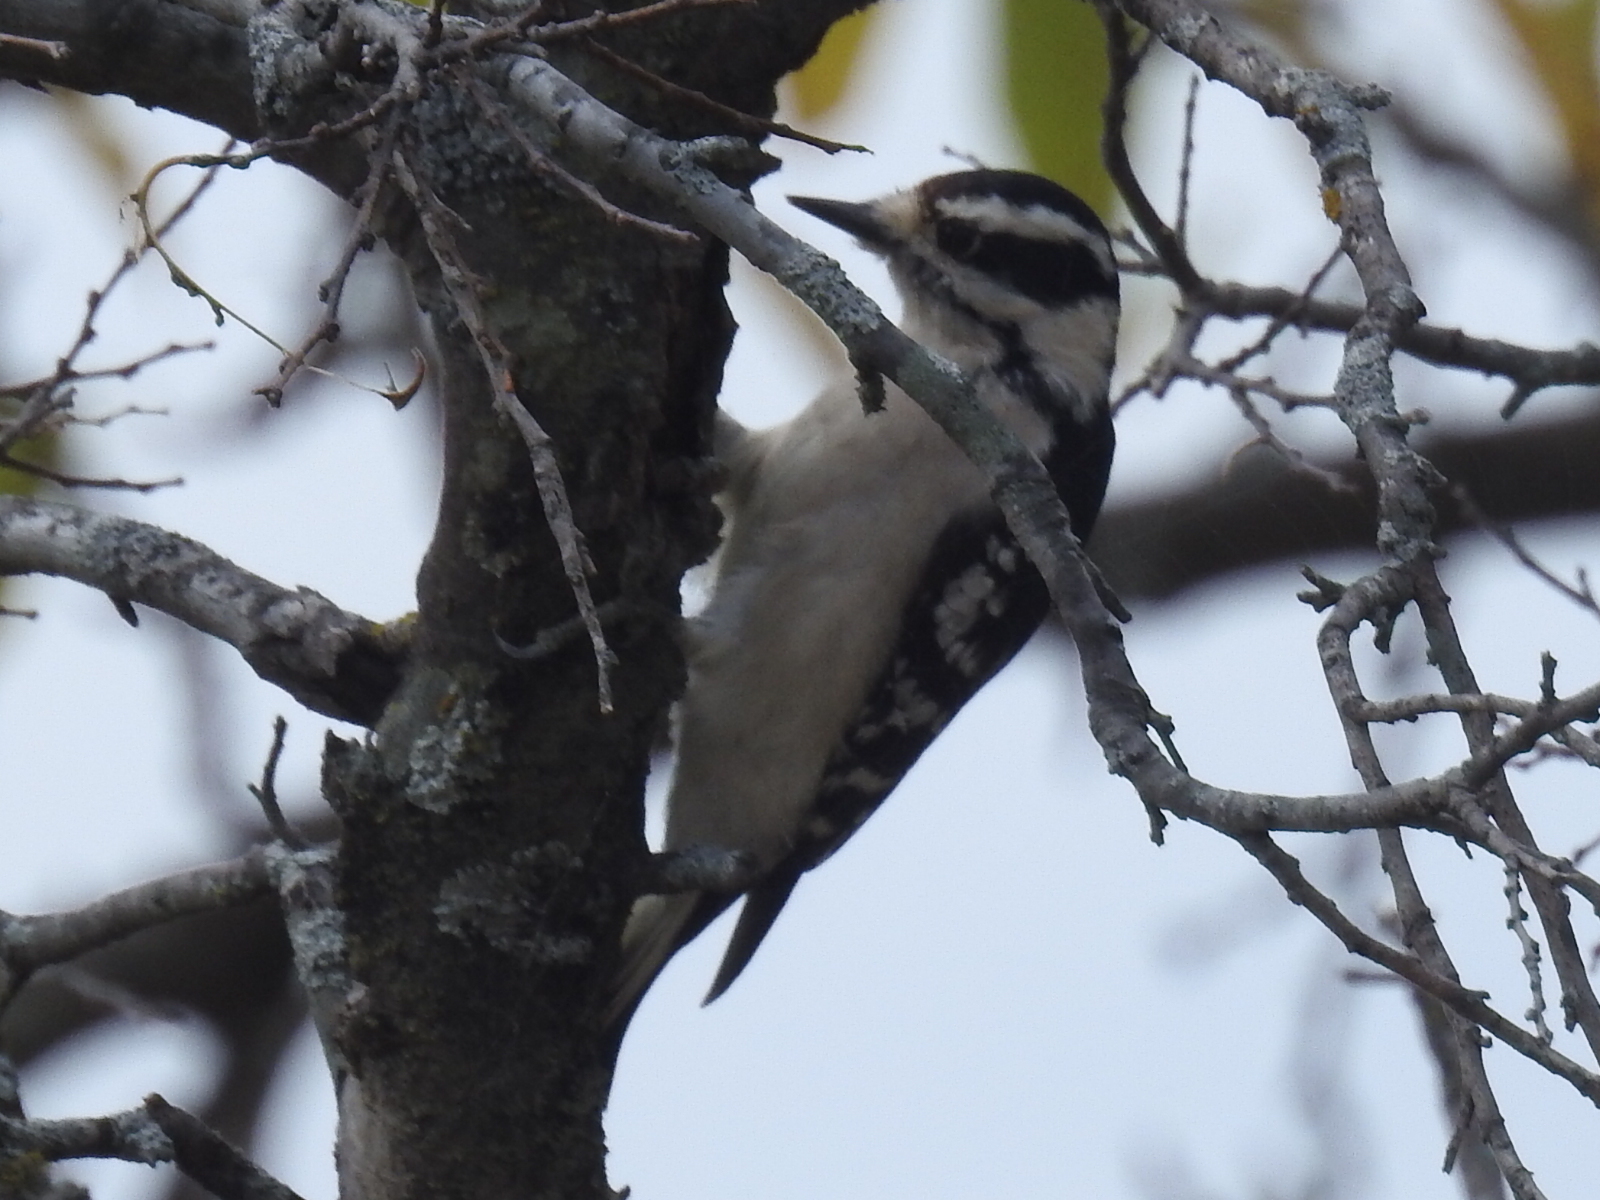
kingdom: Animalia
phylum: Chordata
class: Aves
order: Piciformes
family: Picidae
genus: Dryobates
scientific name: Dryobates pubescens
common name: Downy woodpecker
